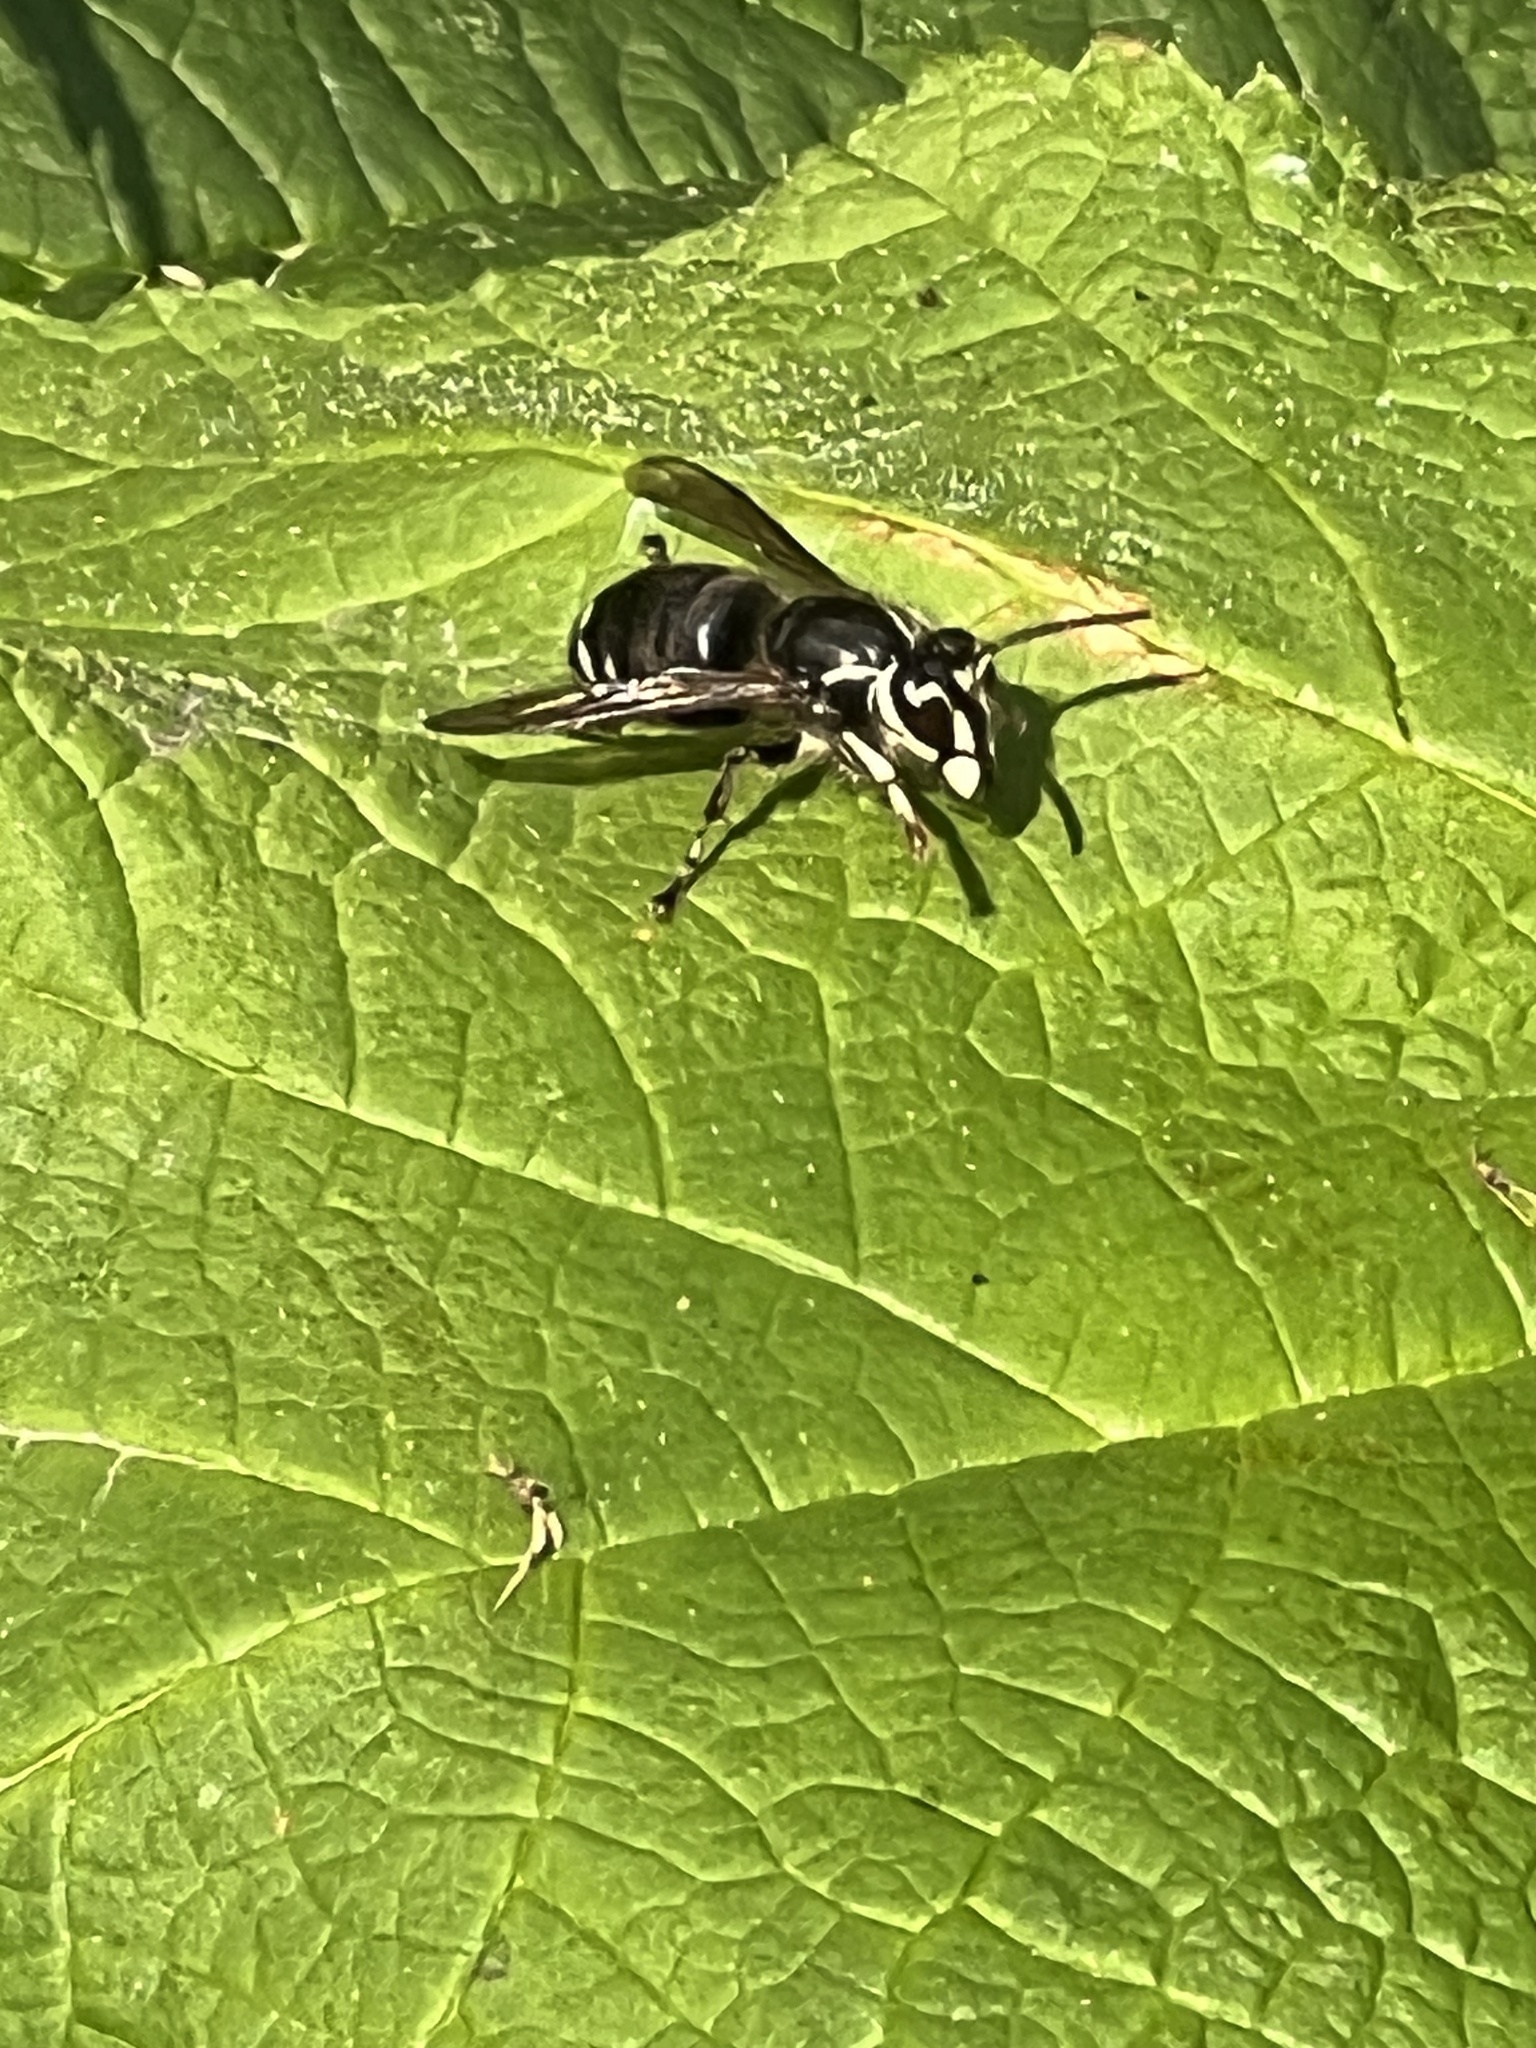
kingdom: Animalia
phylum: Arthropoda
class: Insecta
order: Hymenoptera
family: Vespidae
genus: Dolichovespula
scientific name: Dolichovespula maculata
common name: Bald-faced hornet
